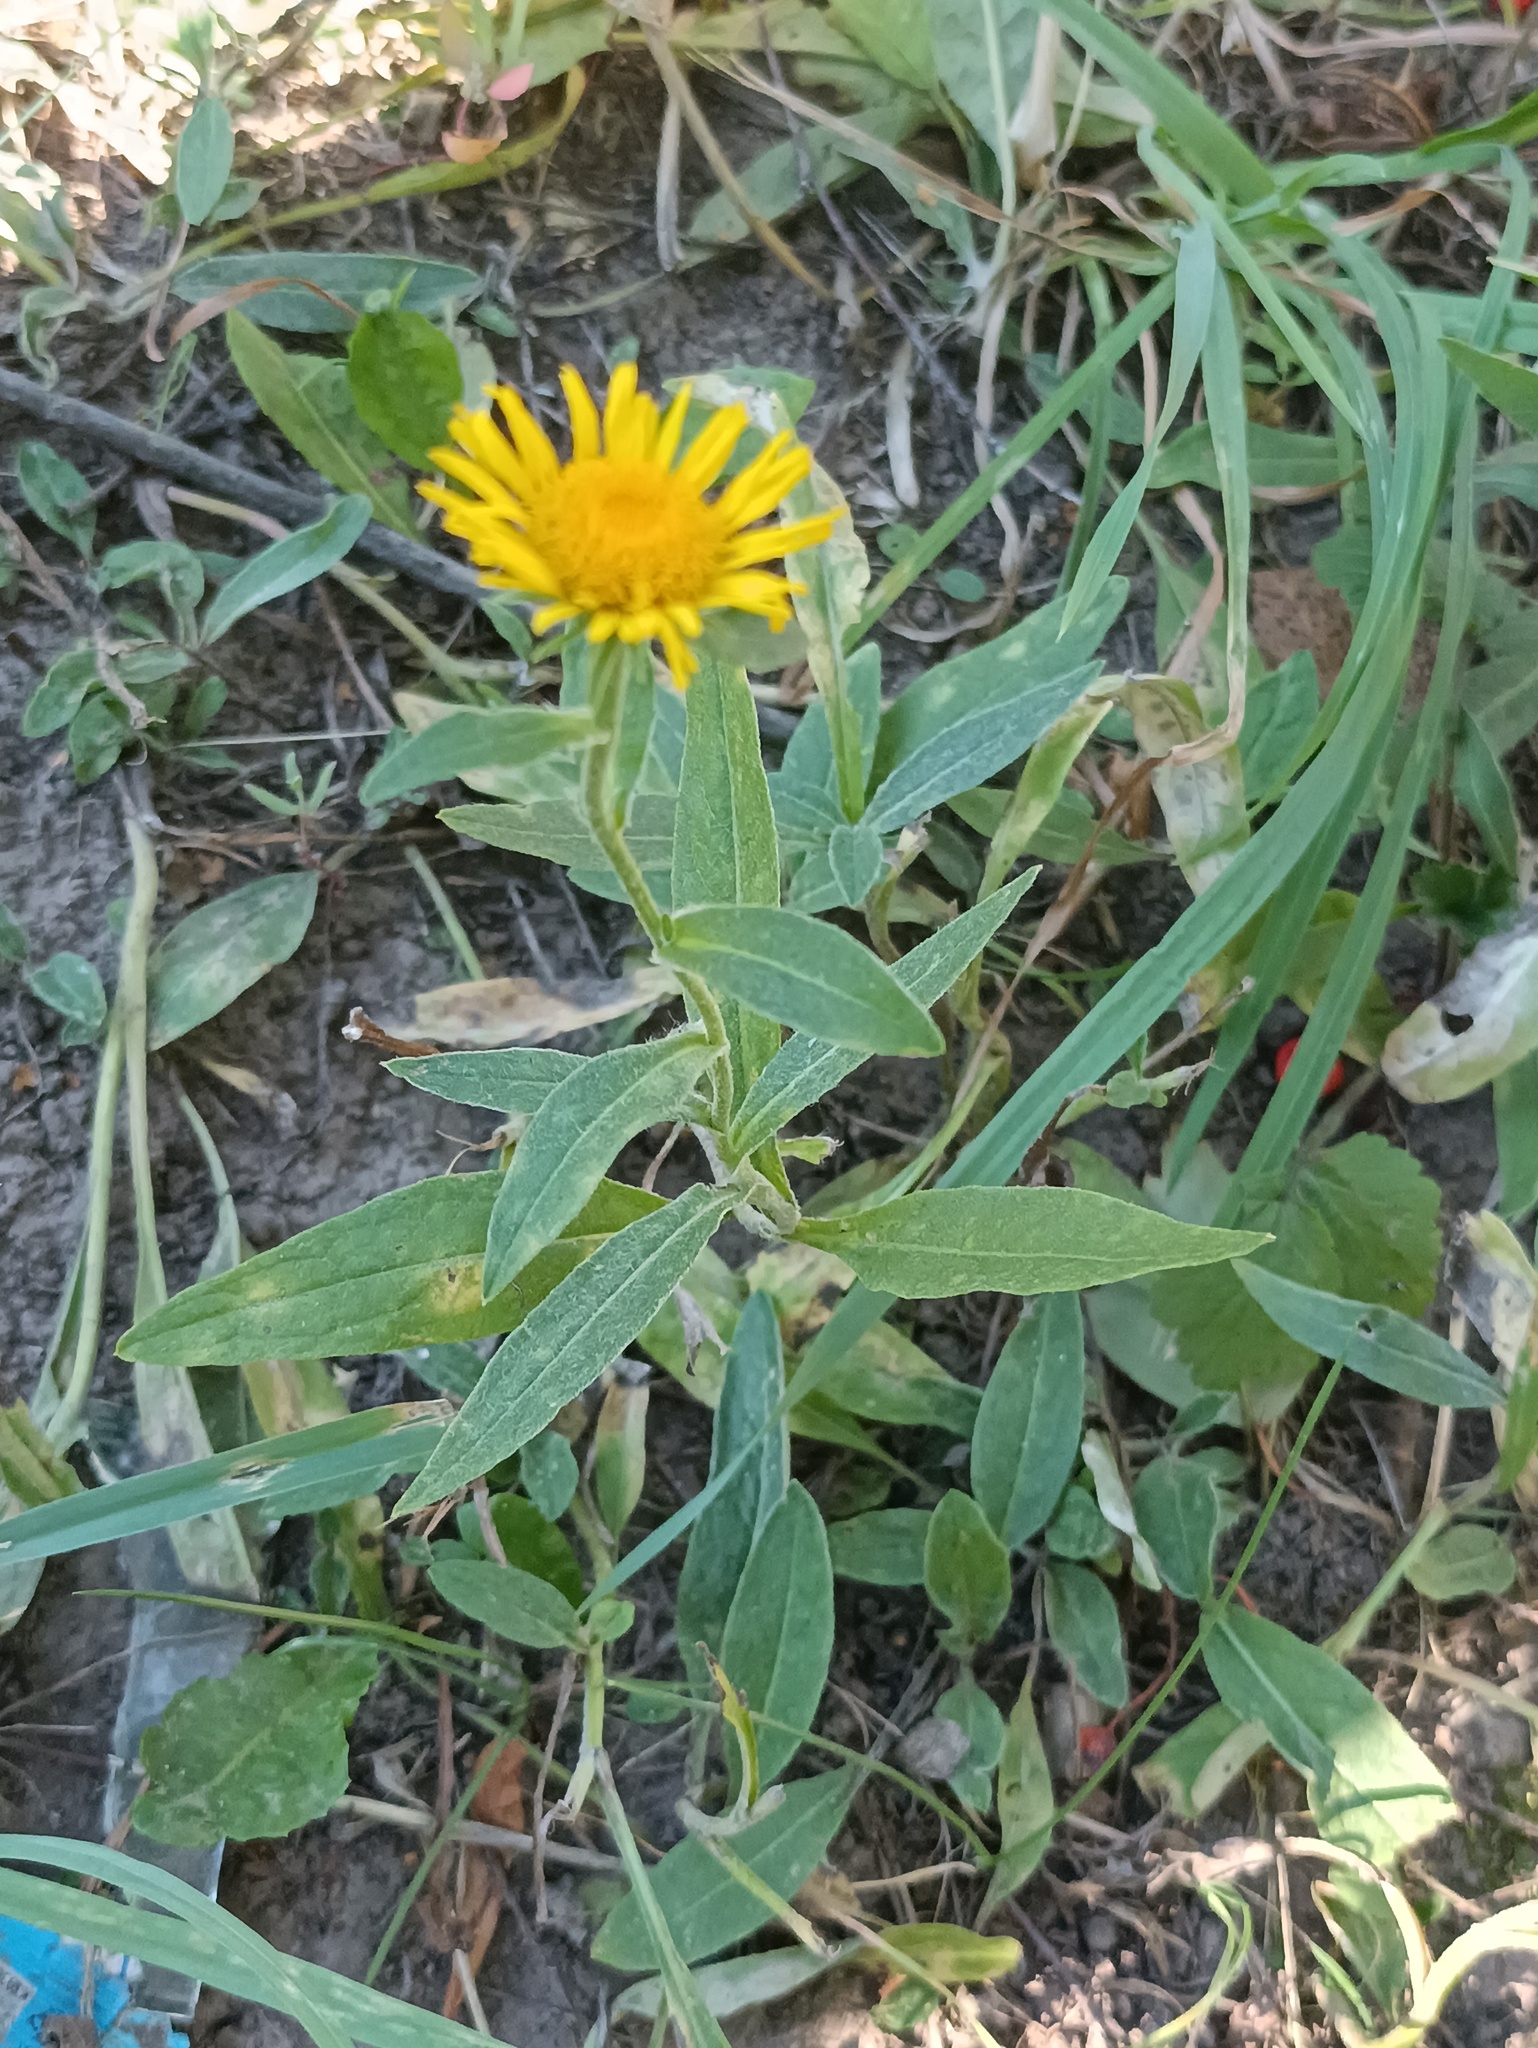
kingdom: Plantae
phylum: Tracheophyta
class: Magnoliopsida
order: Asterales
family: Asteraceae
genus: Pentanema
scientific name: Pentanema britannicum
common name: British elecampane
